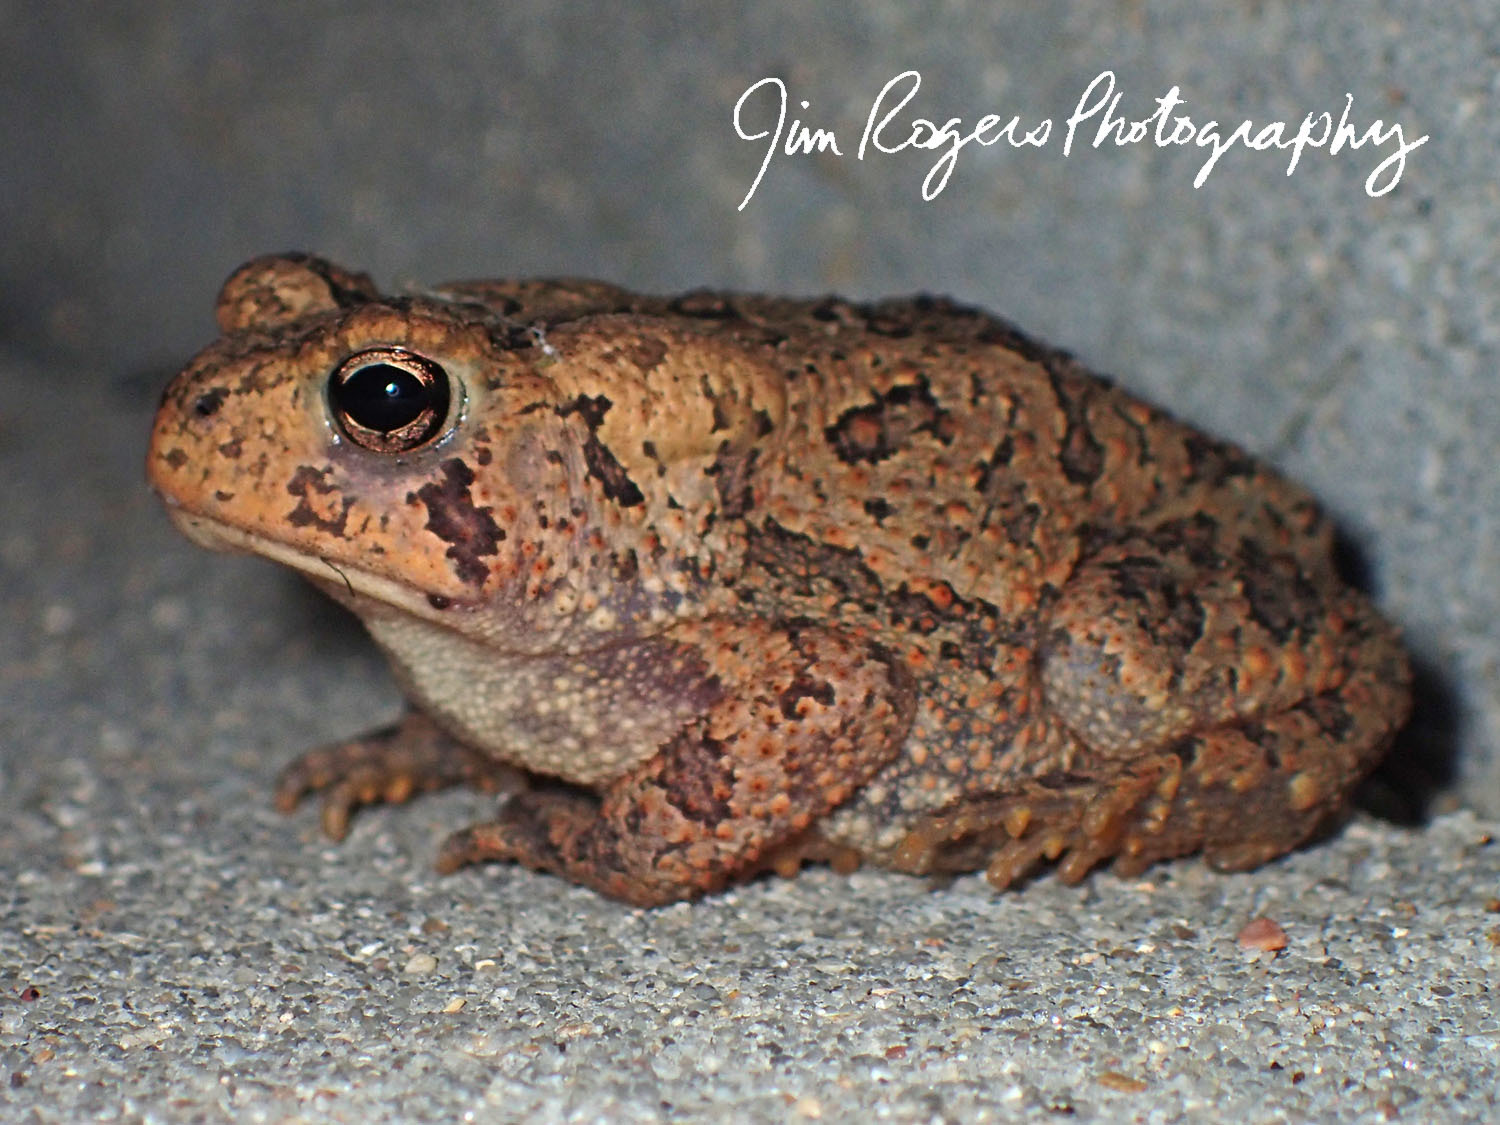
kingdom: Animalia
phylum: Chordata
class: Amphibia
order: Anura
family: Bufonidae
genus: Anaxyrus
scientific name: Anaxyrus americanus
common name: American toad
